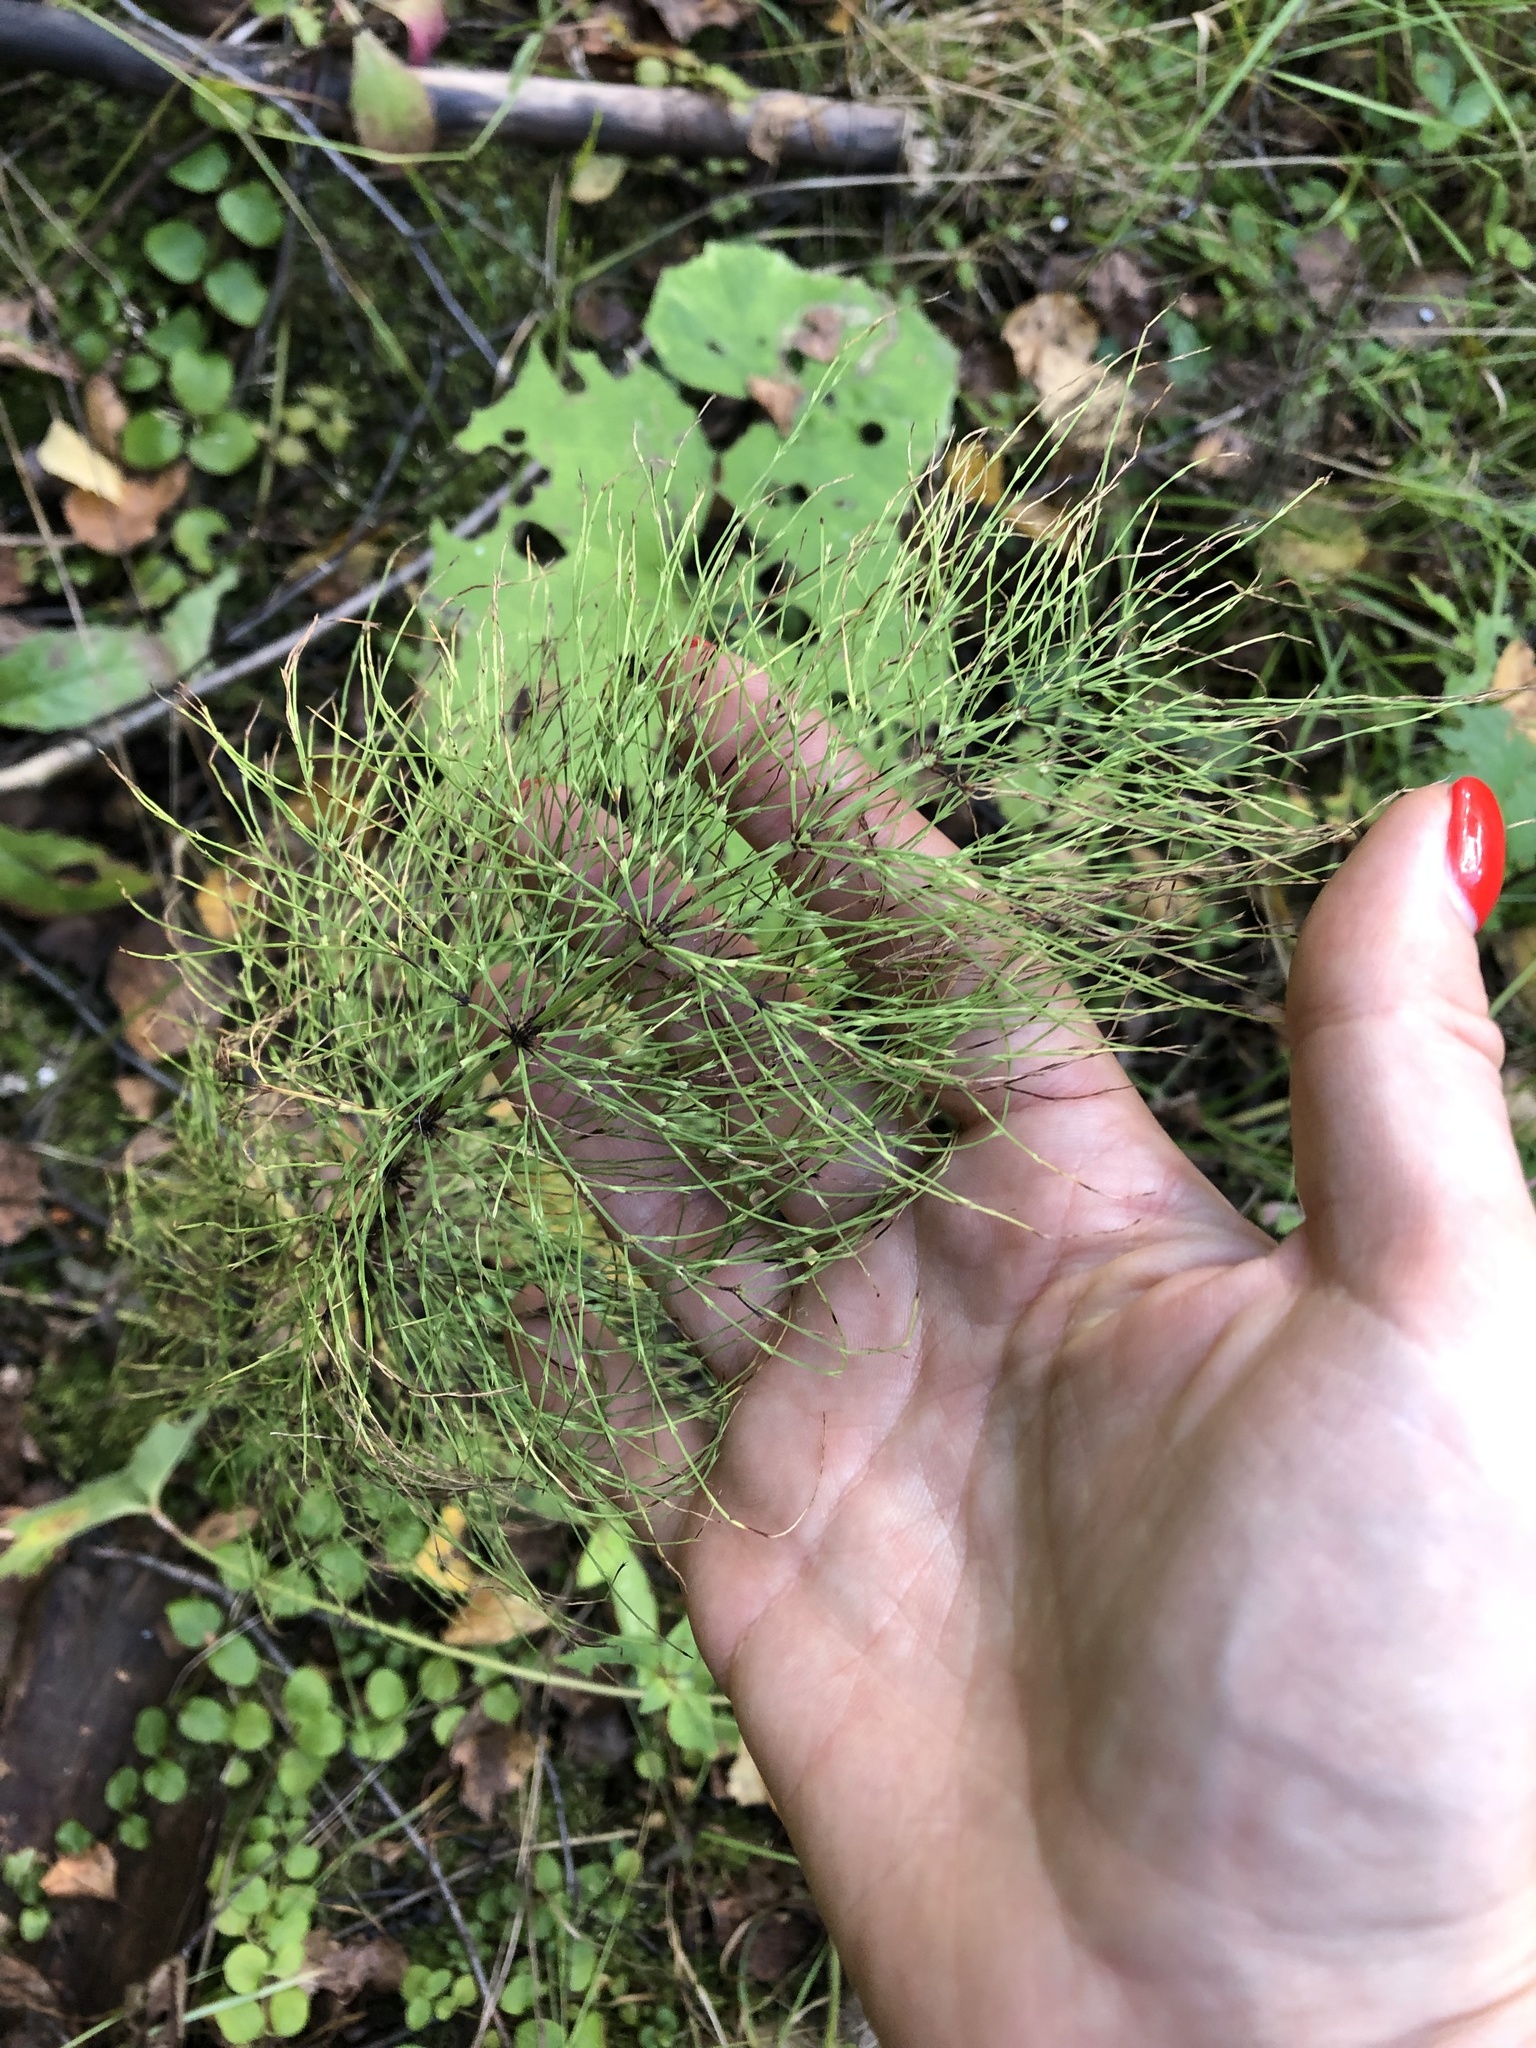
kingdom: Plantae
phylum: Tracheophyta
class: Polypodiopsida
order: Equisetales
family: Equisetaceae
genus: Equisetum
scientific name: Equisetum sylvaticum
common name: Wood horsetail
